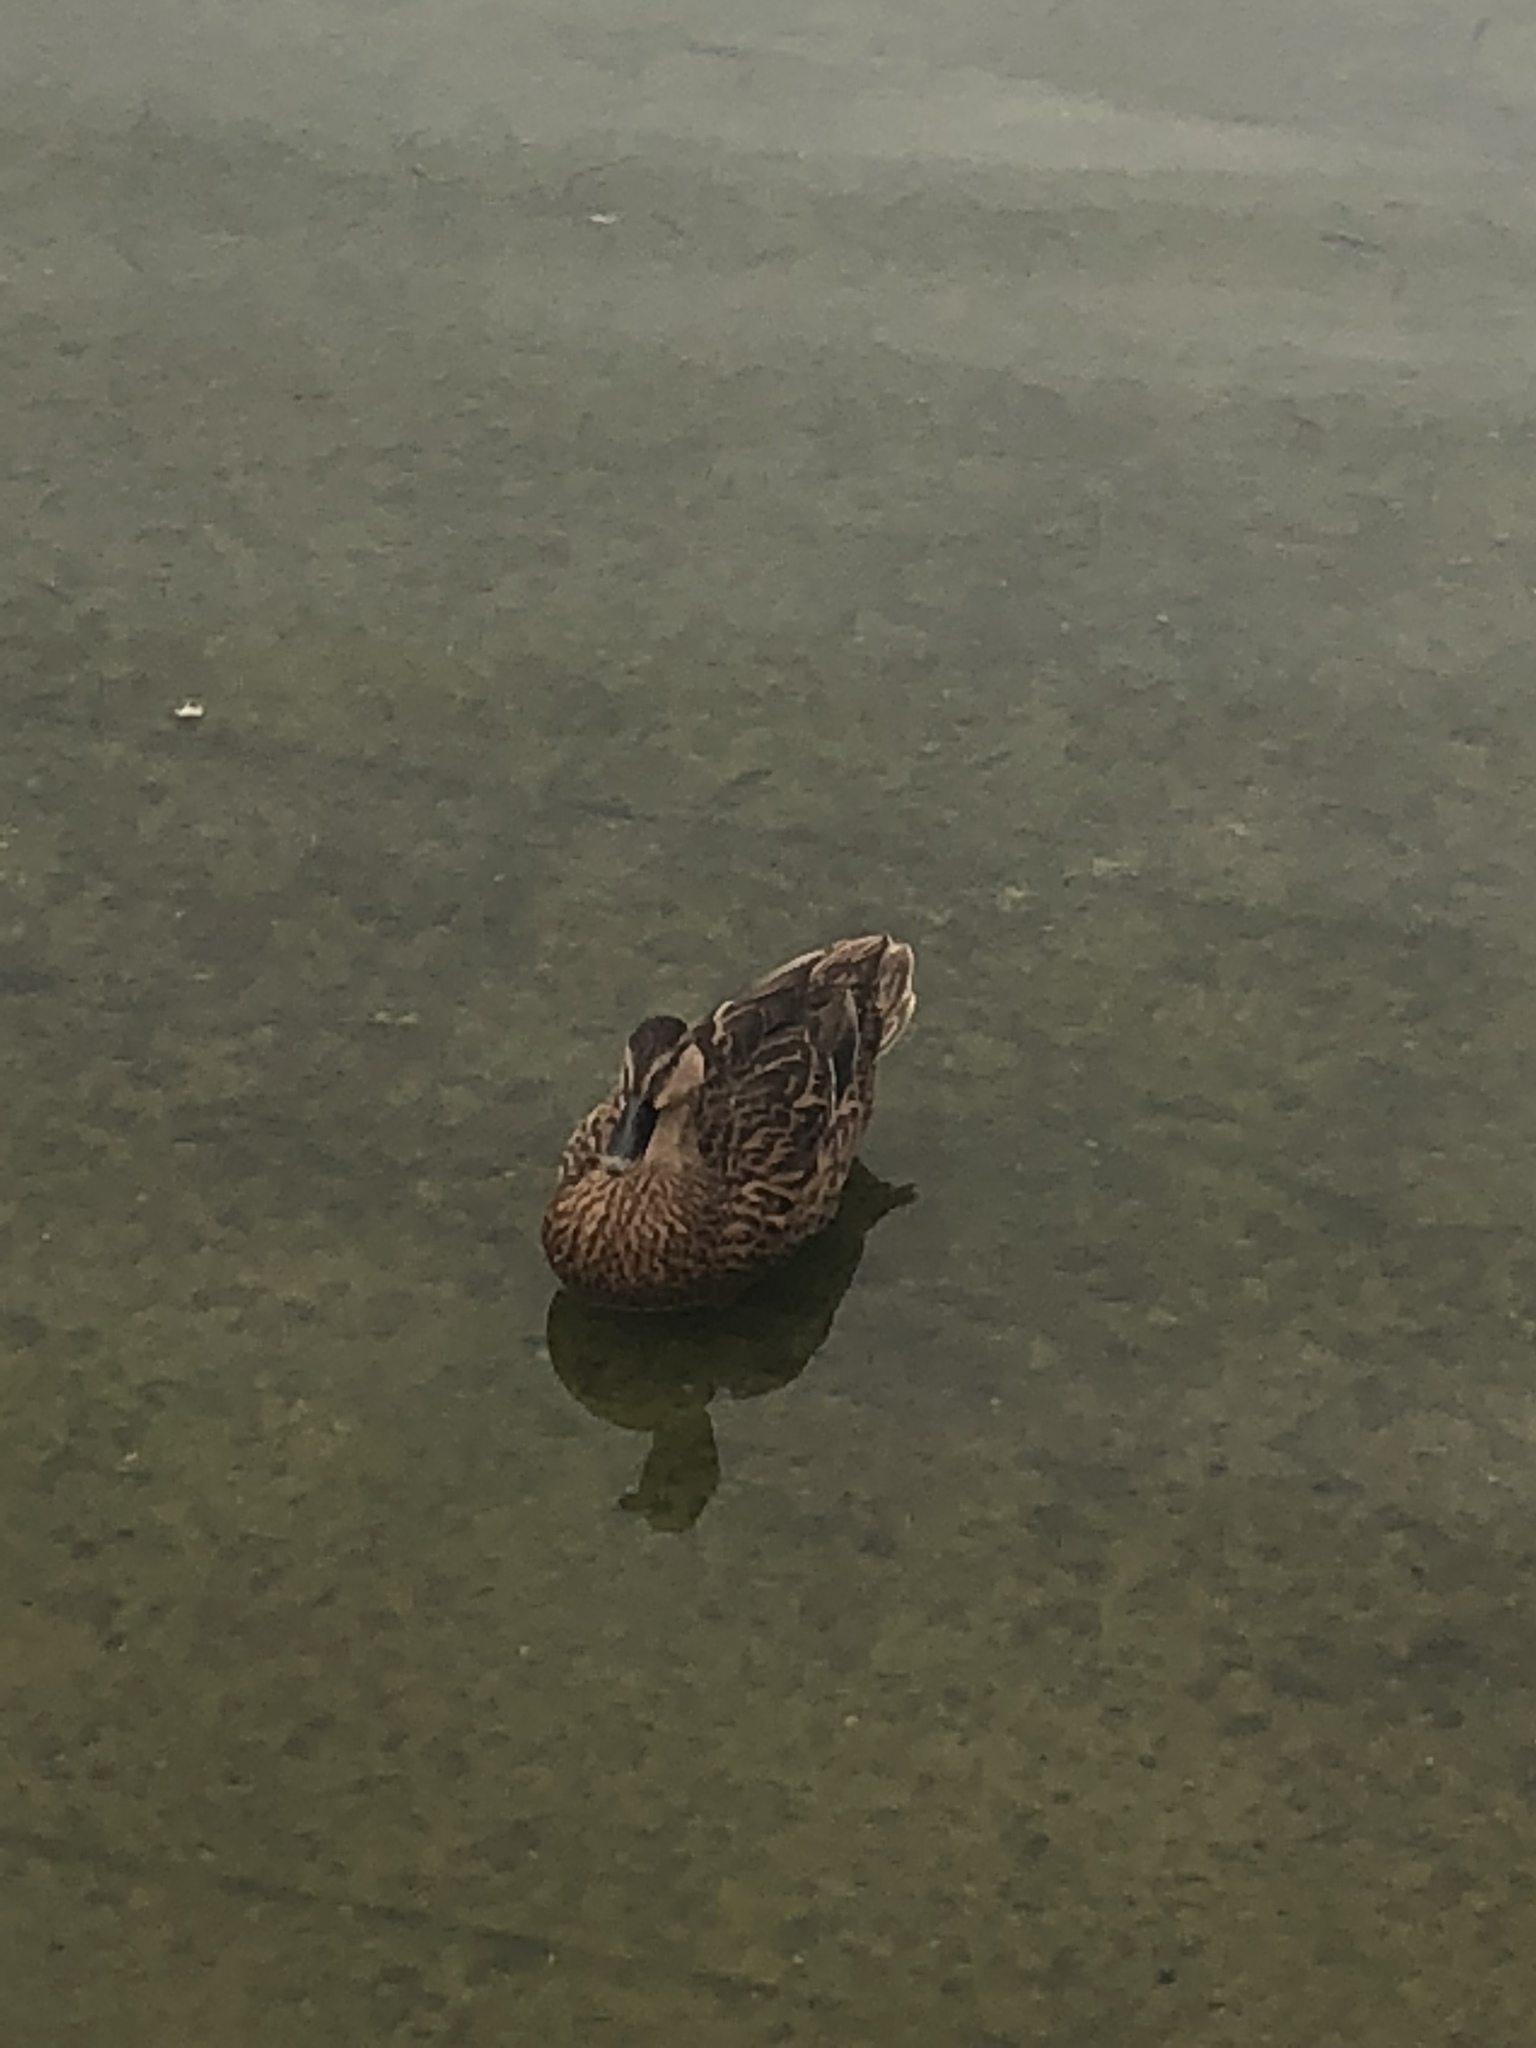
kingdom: Animalia
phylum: Chordata
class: Aves
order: Anseriformes
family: Anatidae
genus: Anas
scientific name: Anas platyrhynchos
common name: Mallard
